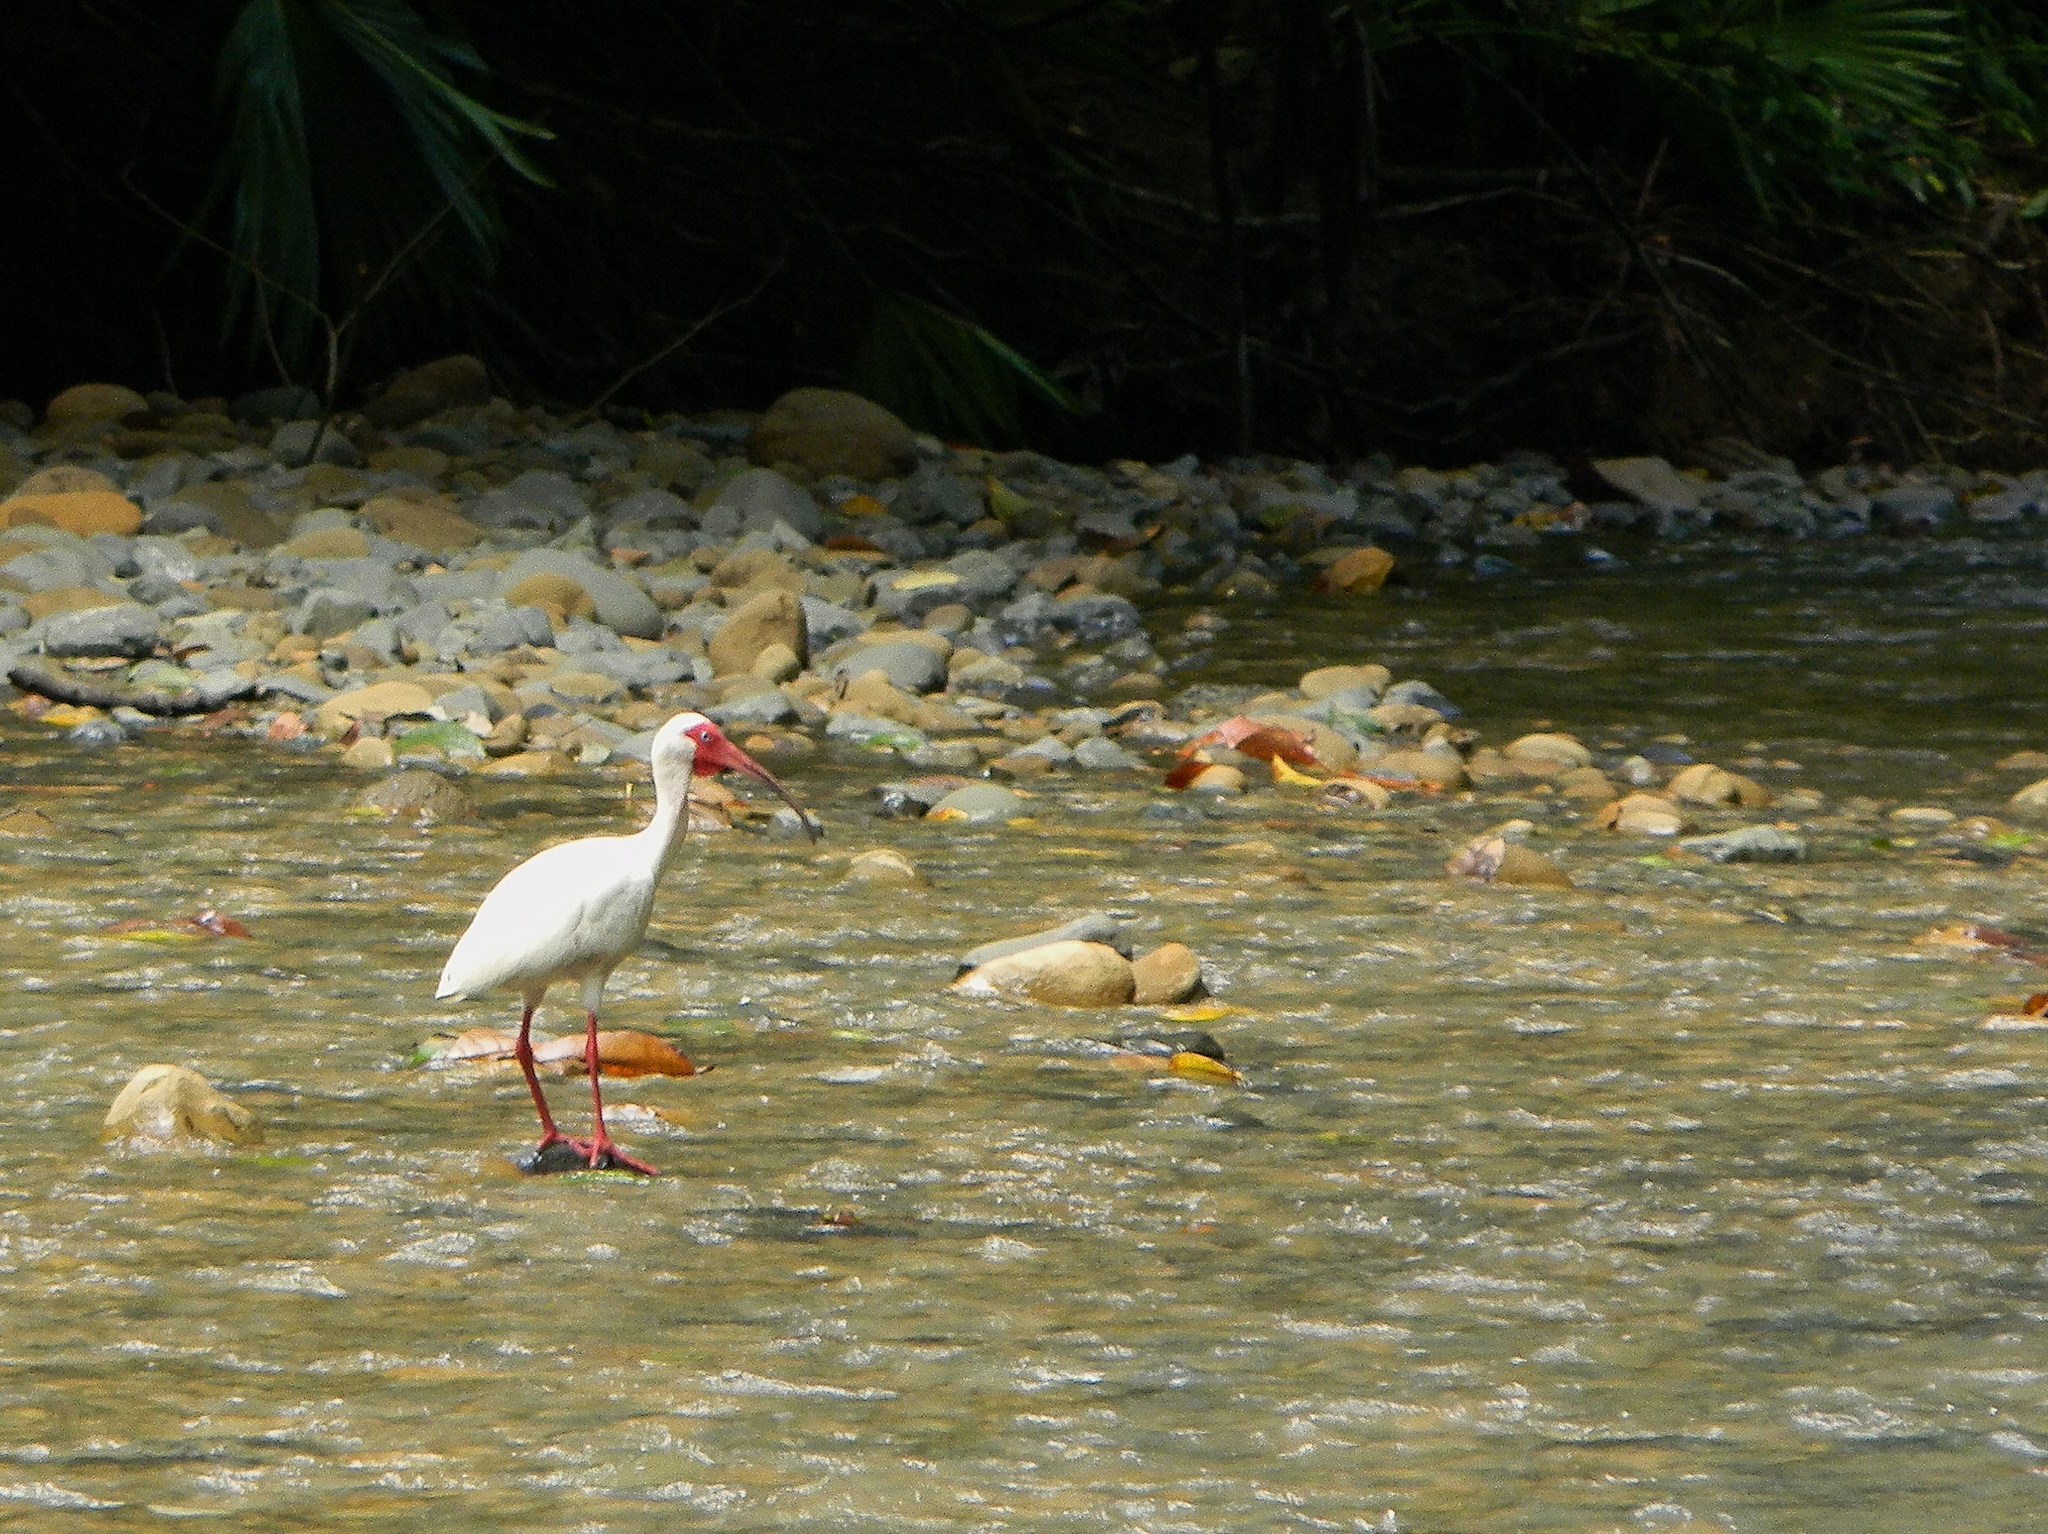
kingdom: Animalia
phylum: Chordata
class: Aves
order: Pelecaniformes
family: Threskiornithidae
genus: Eudocimus
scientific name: Eudocimus albus
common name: White ibis
